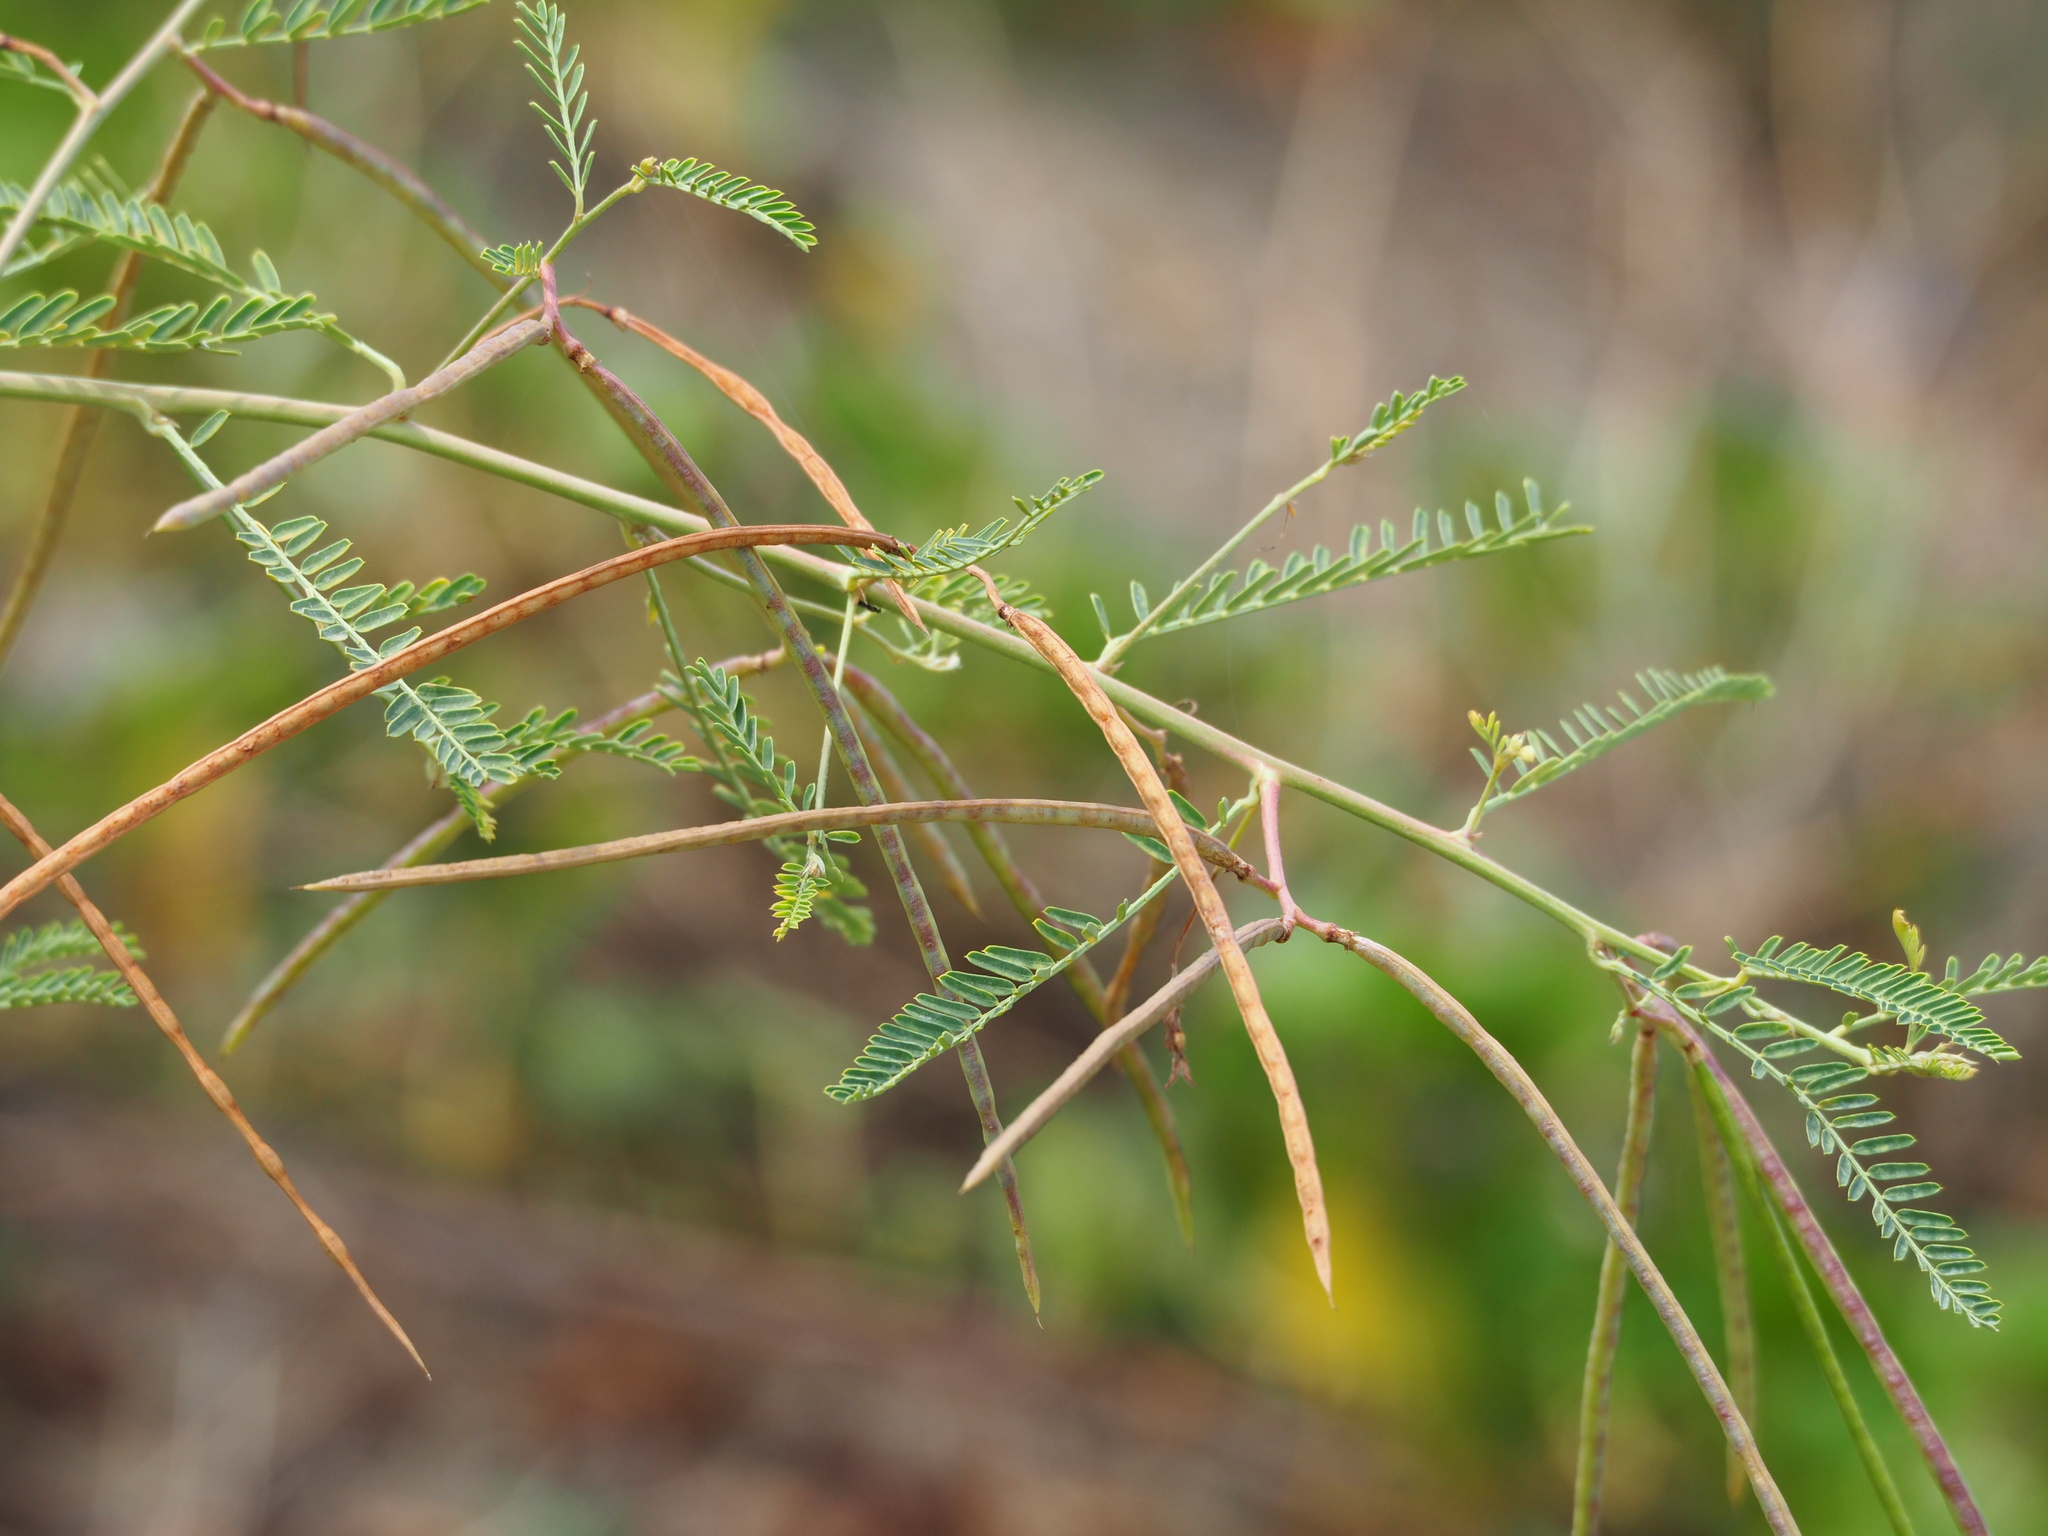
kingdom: Plantae
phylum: Tracheophyta
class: Magnoliopsida
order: Fabales
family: Fabaceae
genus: Sesbania
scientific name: Sesbania cannabina
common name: Canicha
